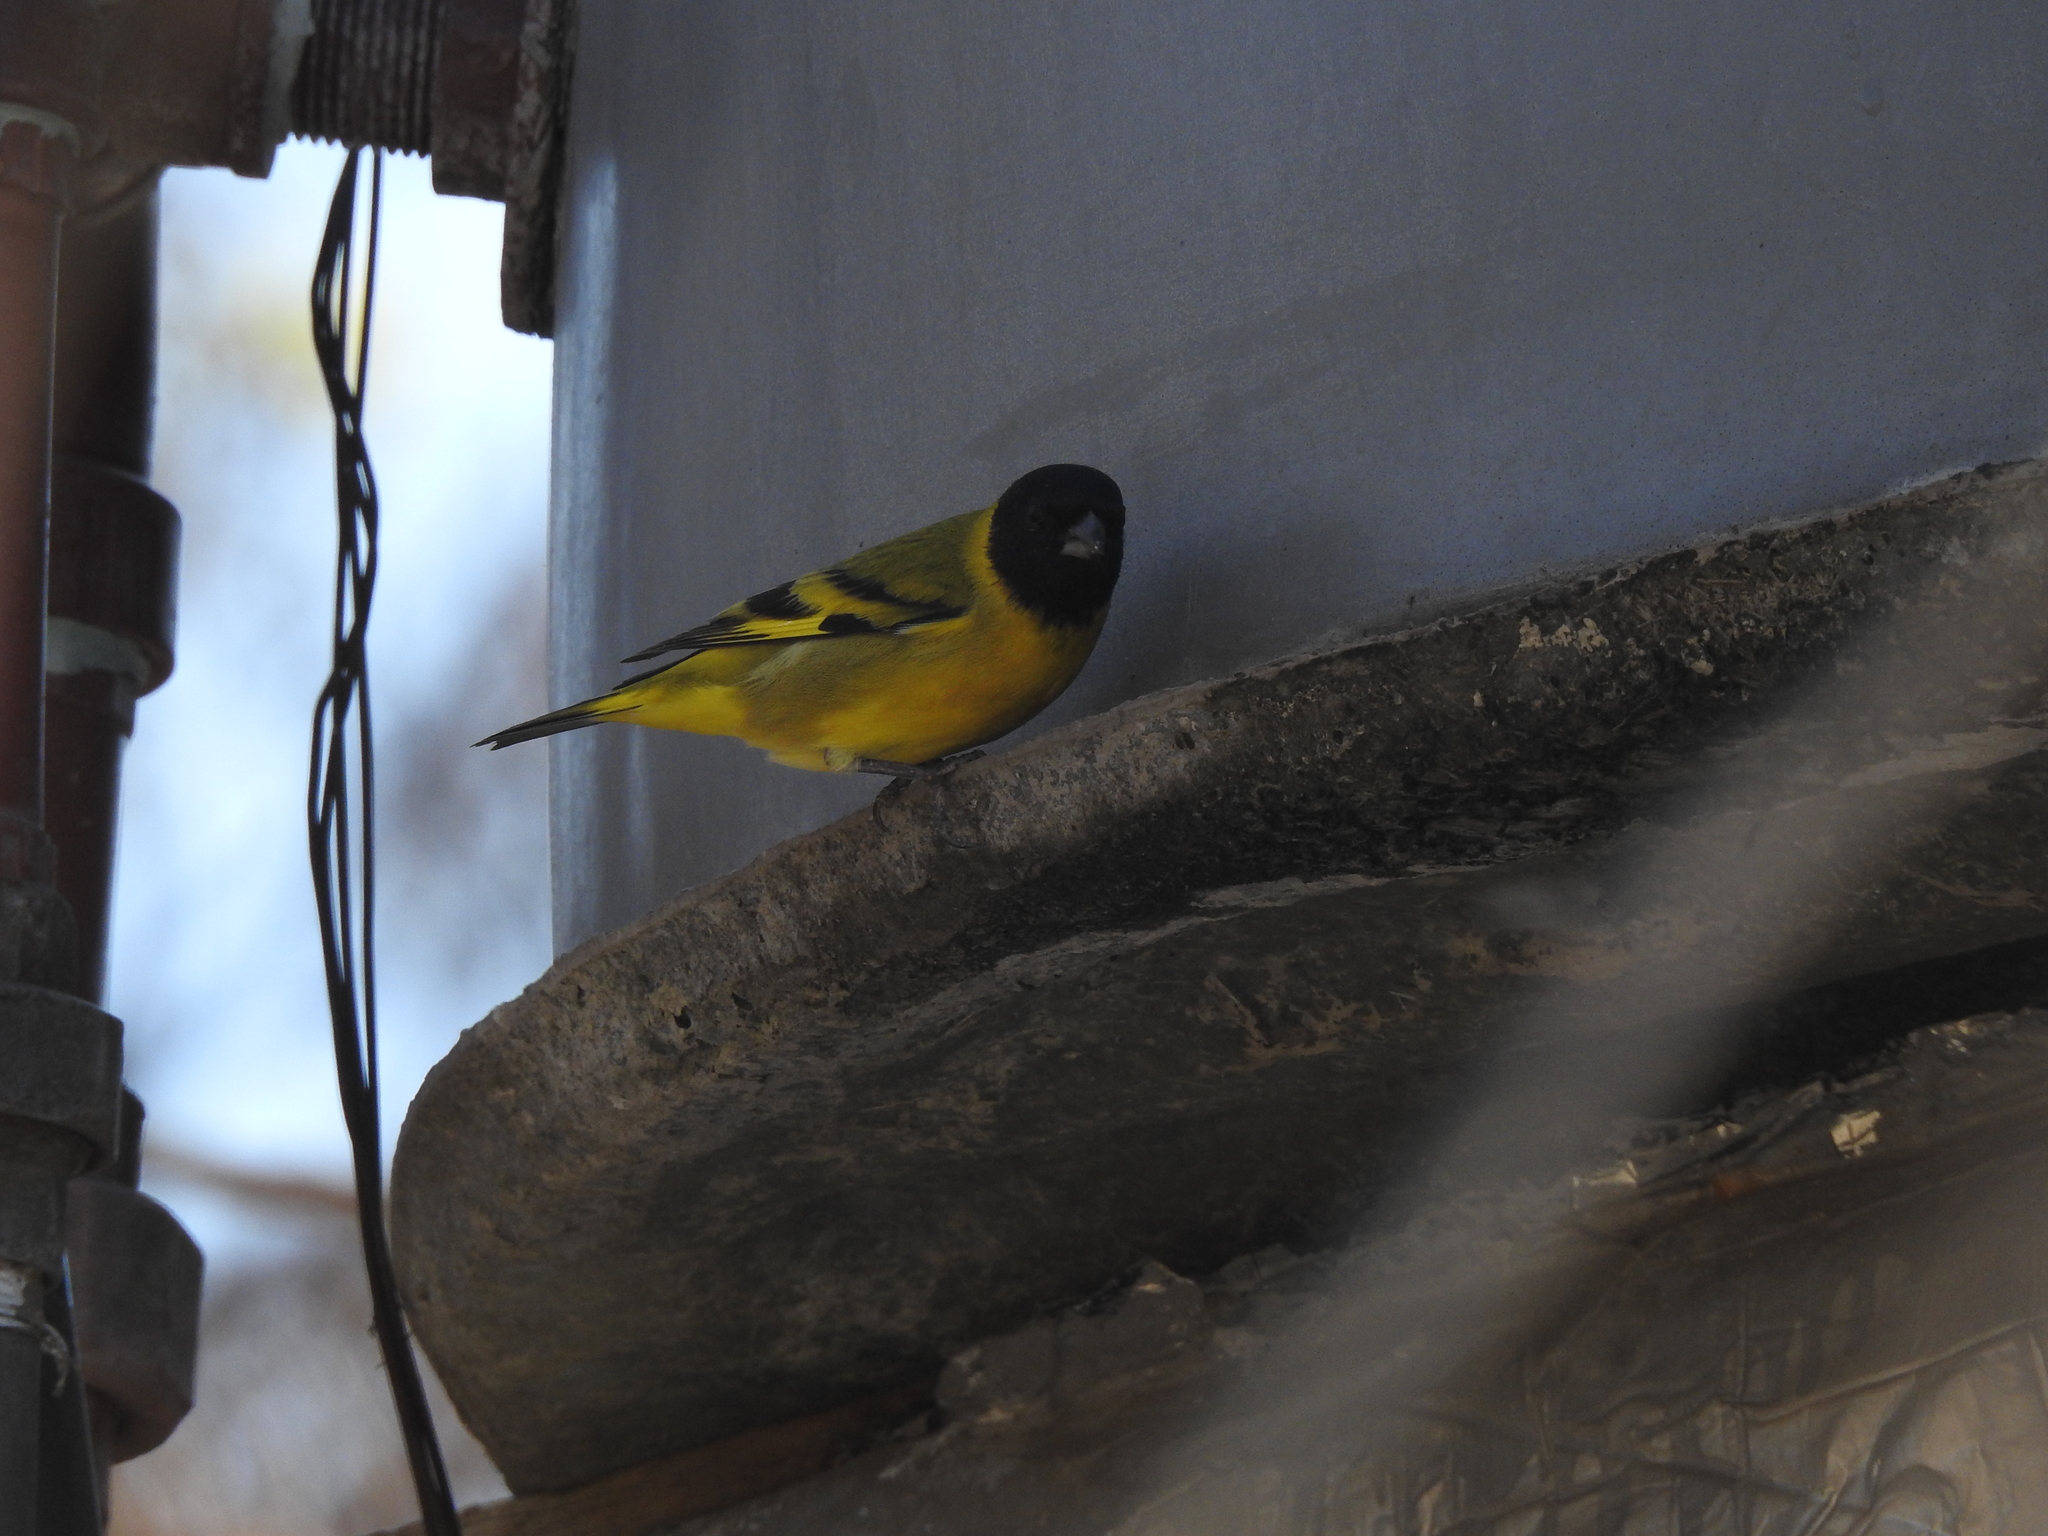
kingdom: Animalia
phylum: Chordata
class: Aves
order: Passeriformes
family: Fringillidae
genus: Spinus
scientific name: Spinus magellanicus
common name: Hooded siskin
